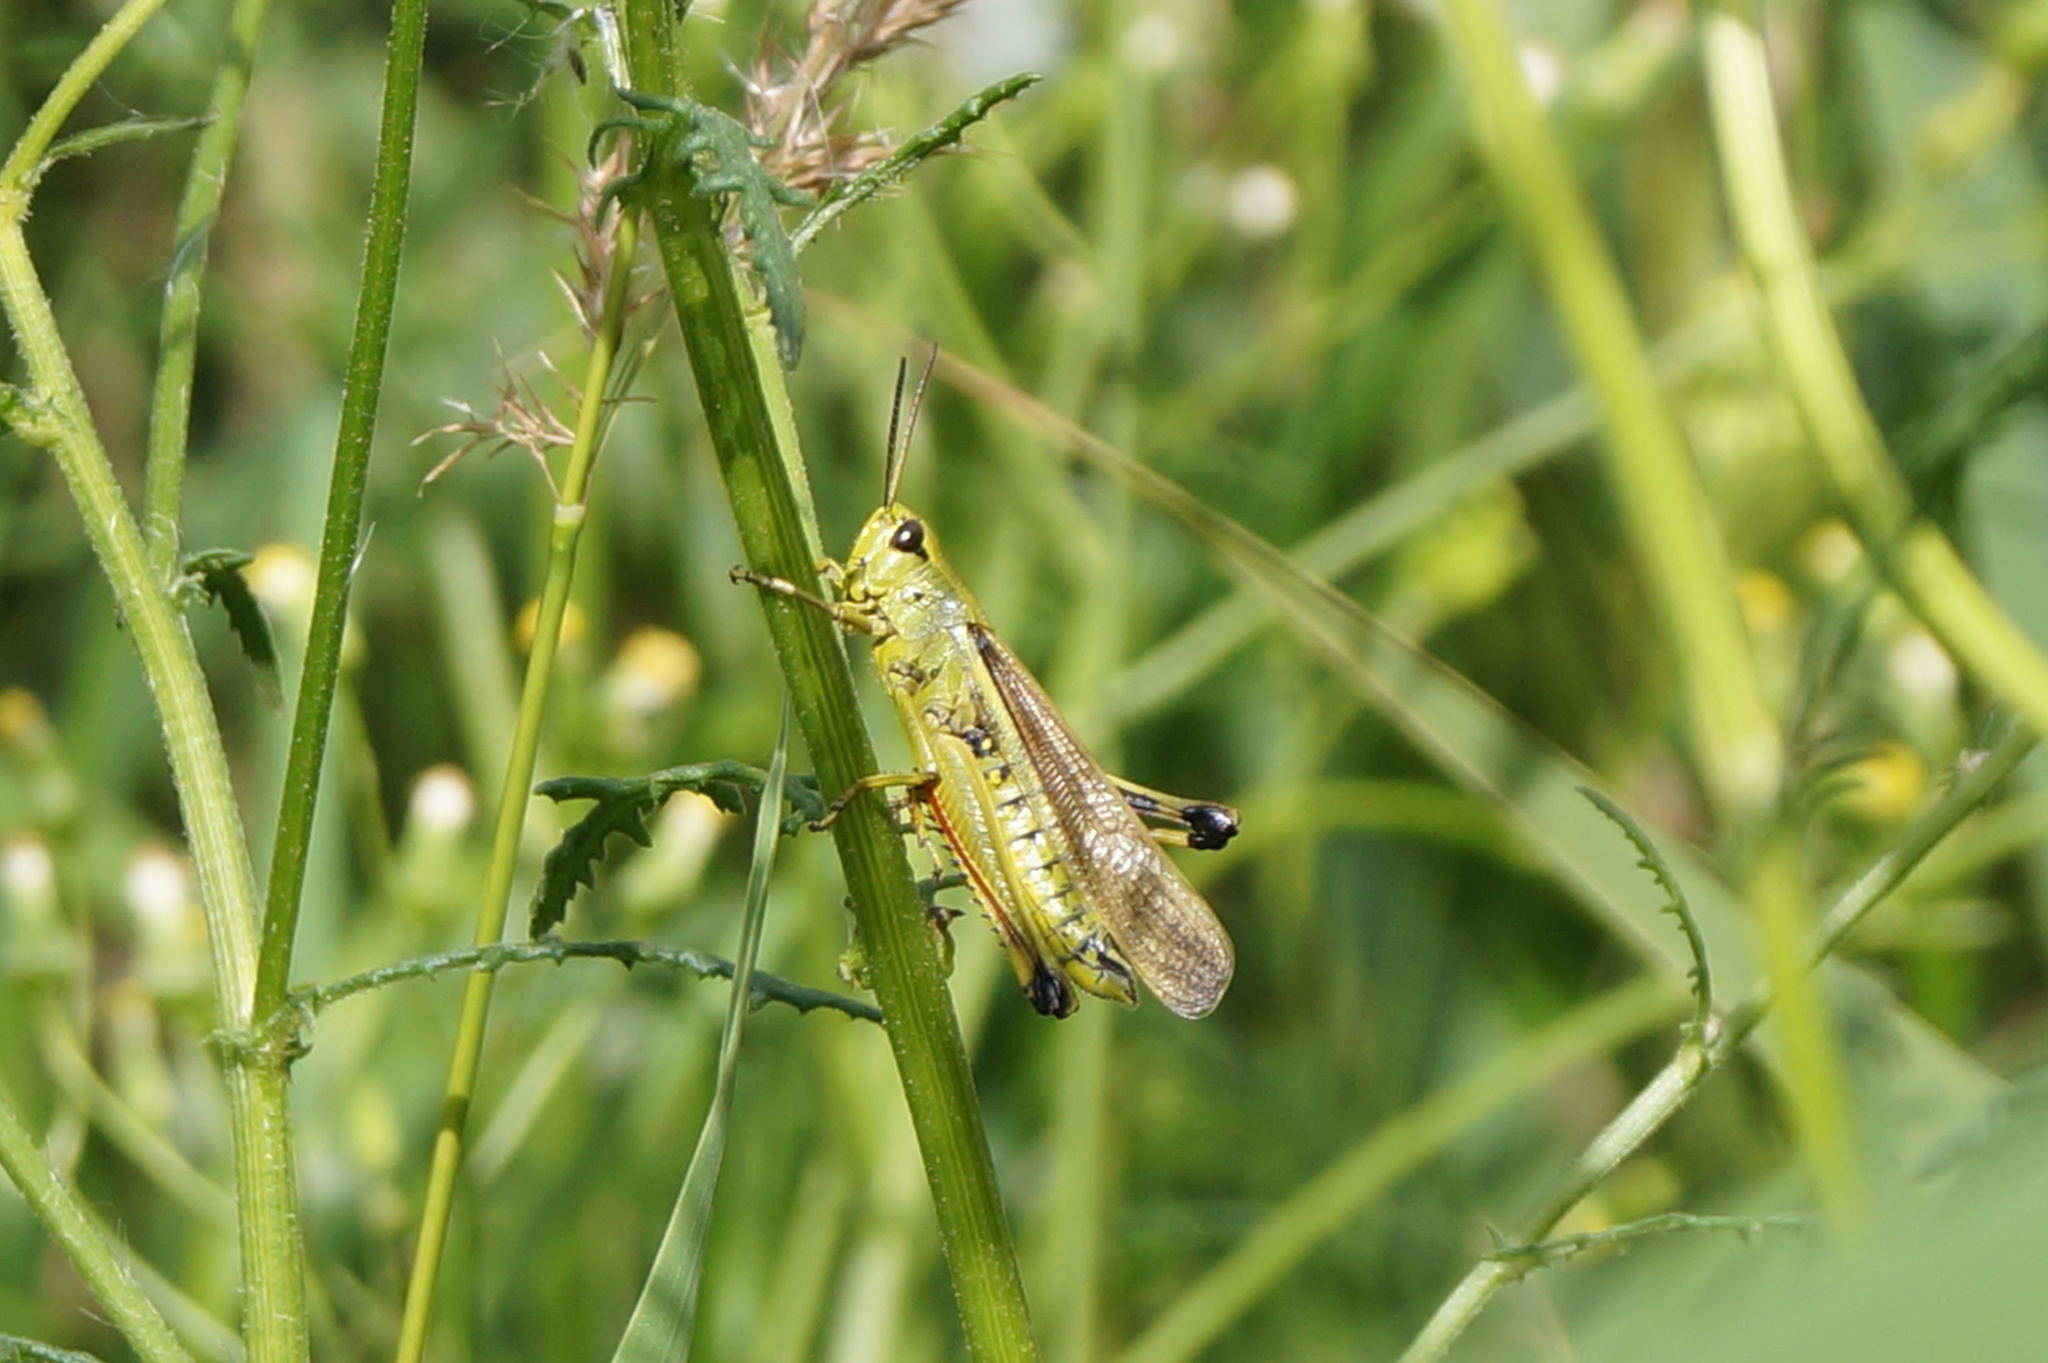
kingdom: Animalia
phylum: Arthropoda
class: Insecta
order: Orthoptera
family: Acrididae
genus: Stethophyma
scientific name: Stethophyma grossum
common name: Large marsh grasshopper
